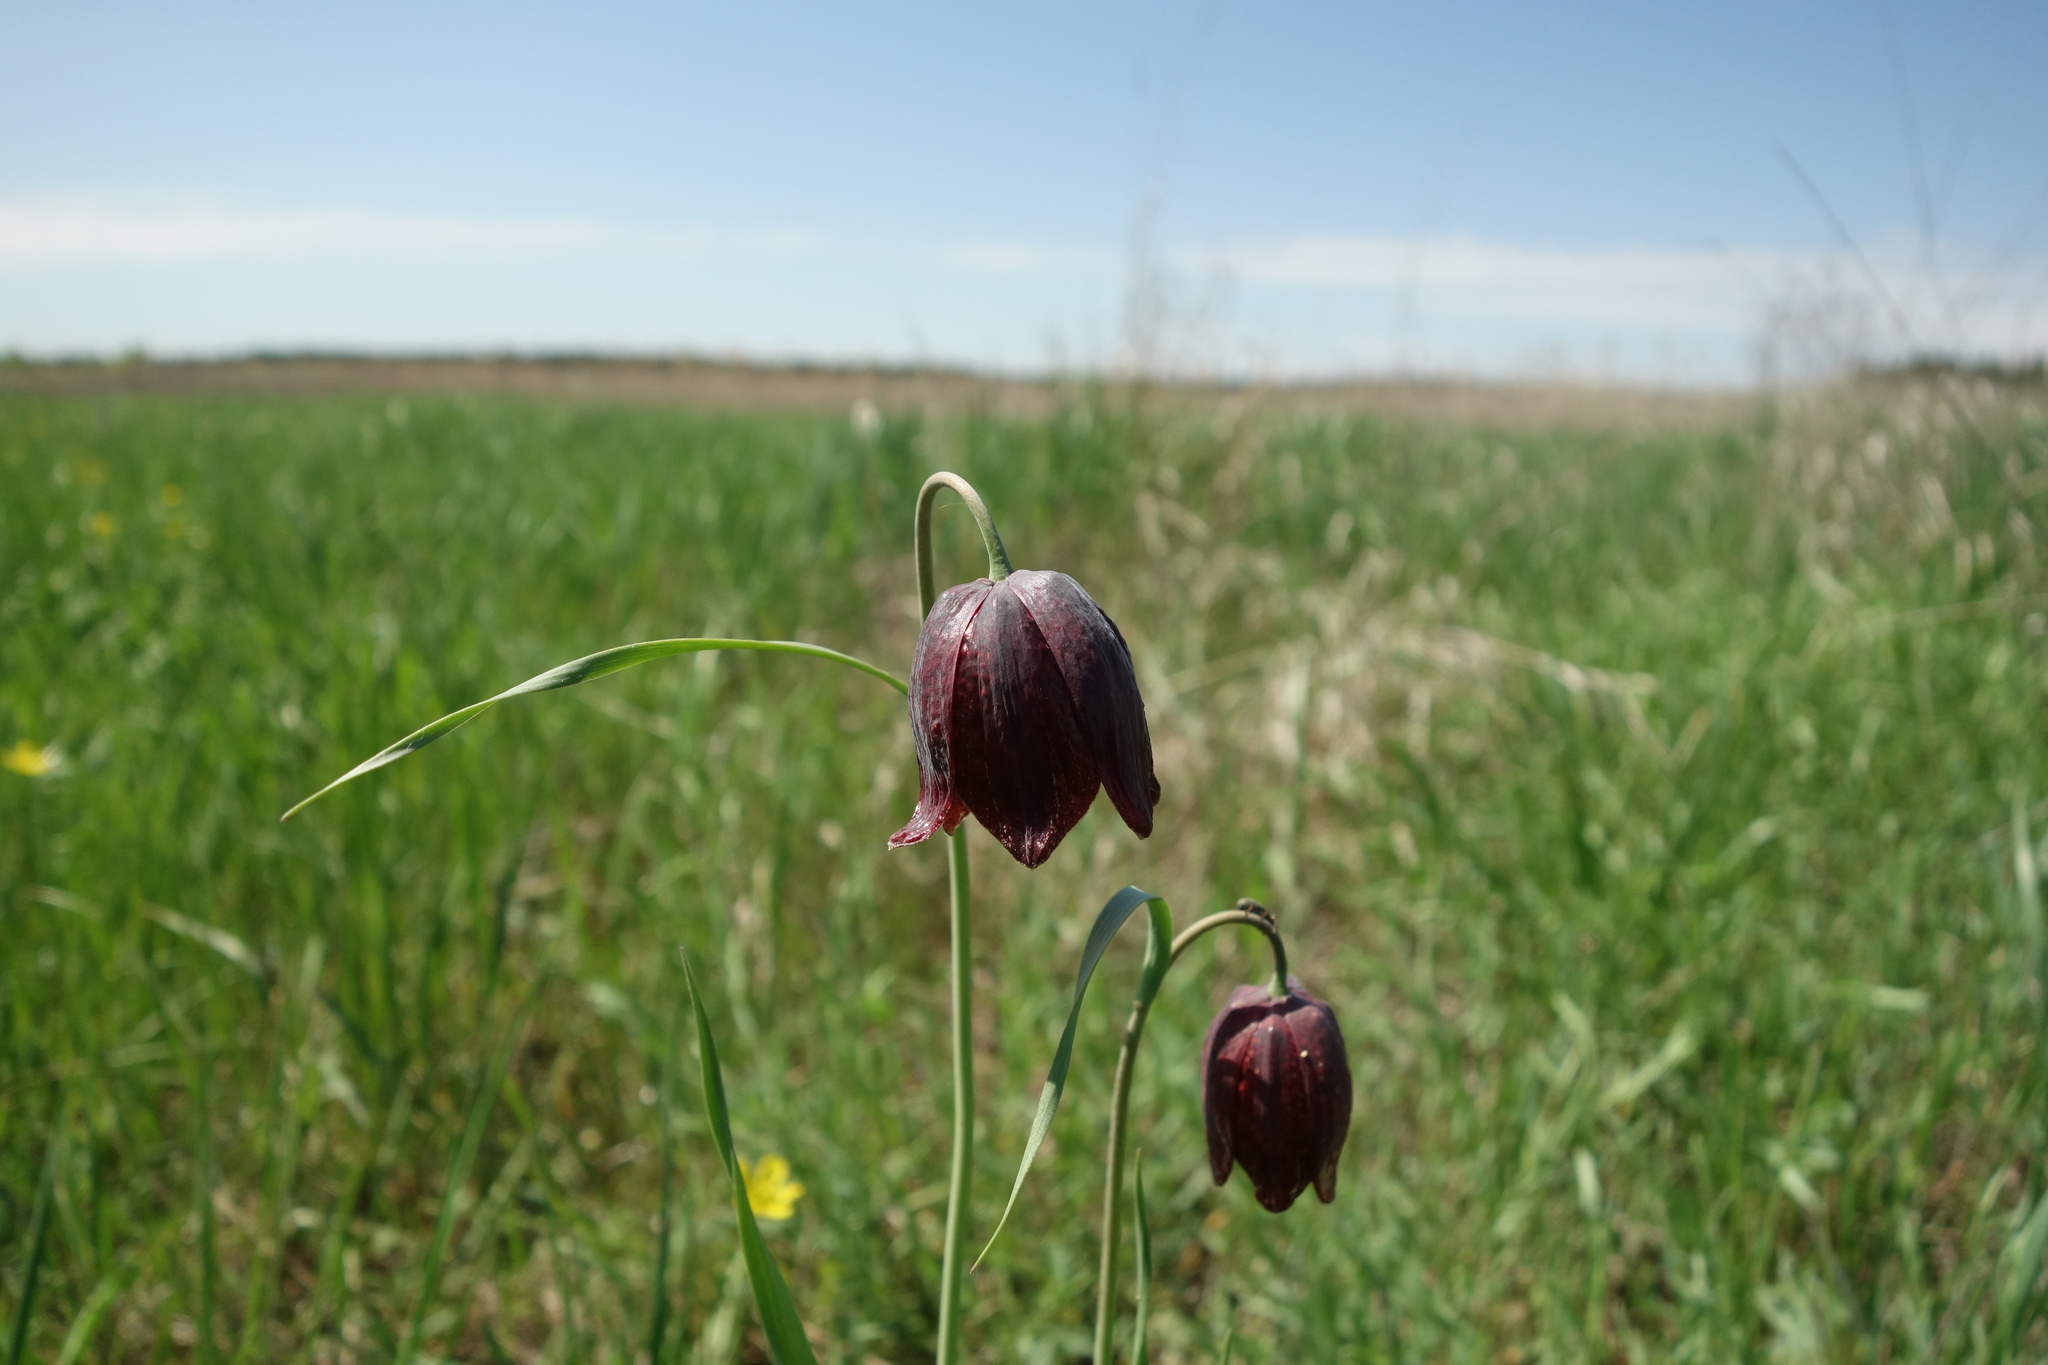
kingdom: Plantae
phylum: Tracheophyta
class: Liliopsida
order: Liliales
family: Liliaceae
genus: Fritillaria
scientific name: Fritillaria meleagroides
